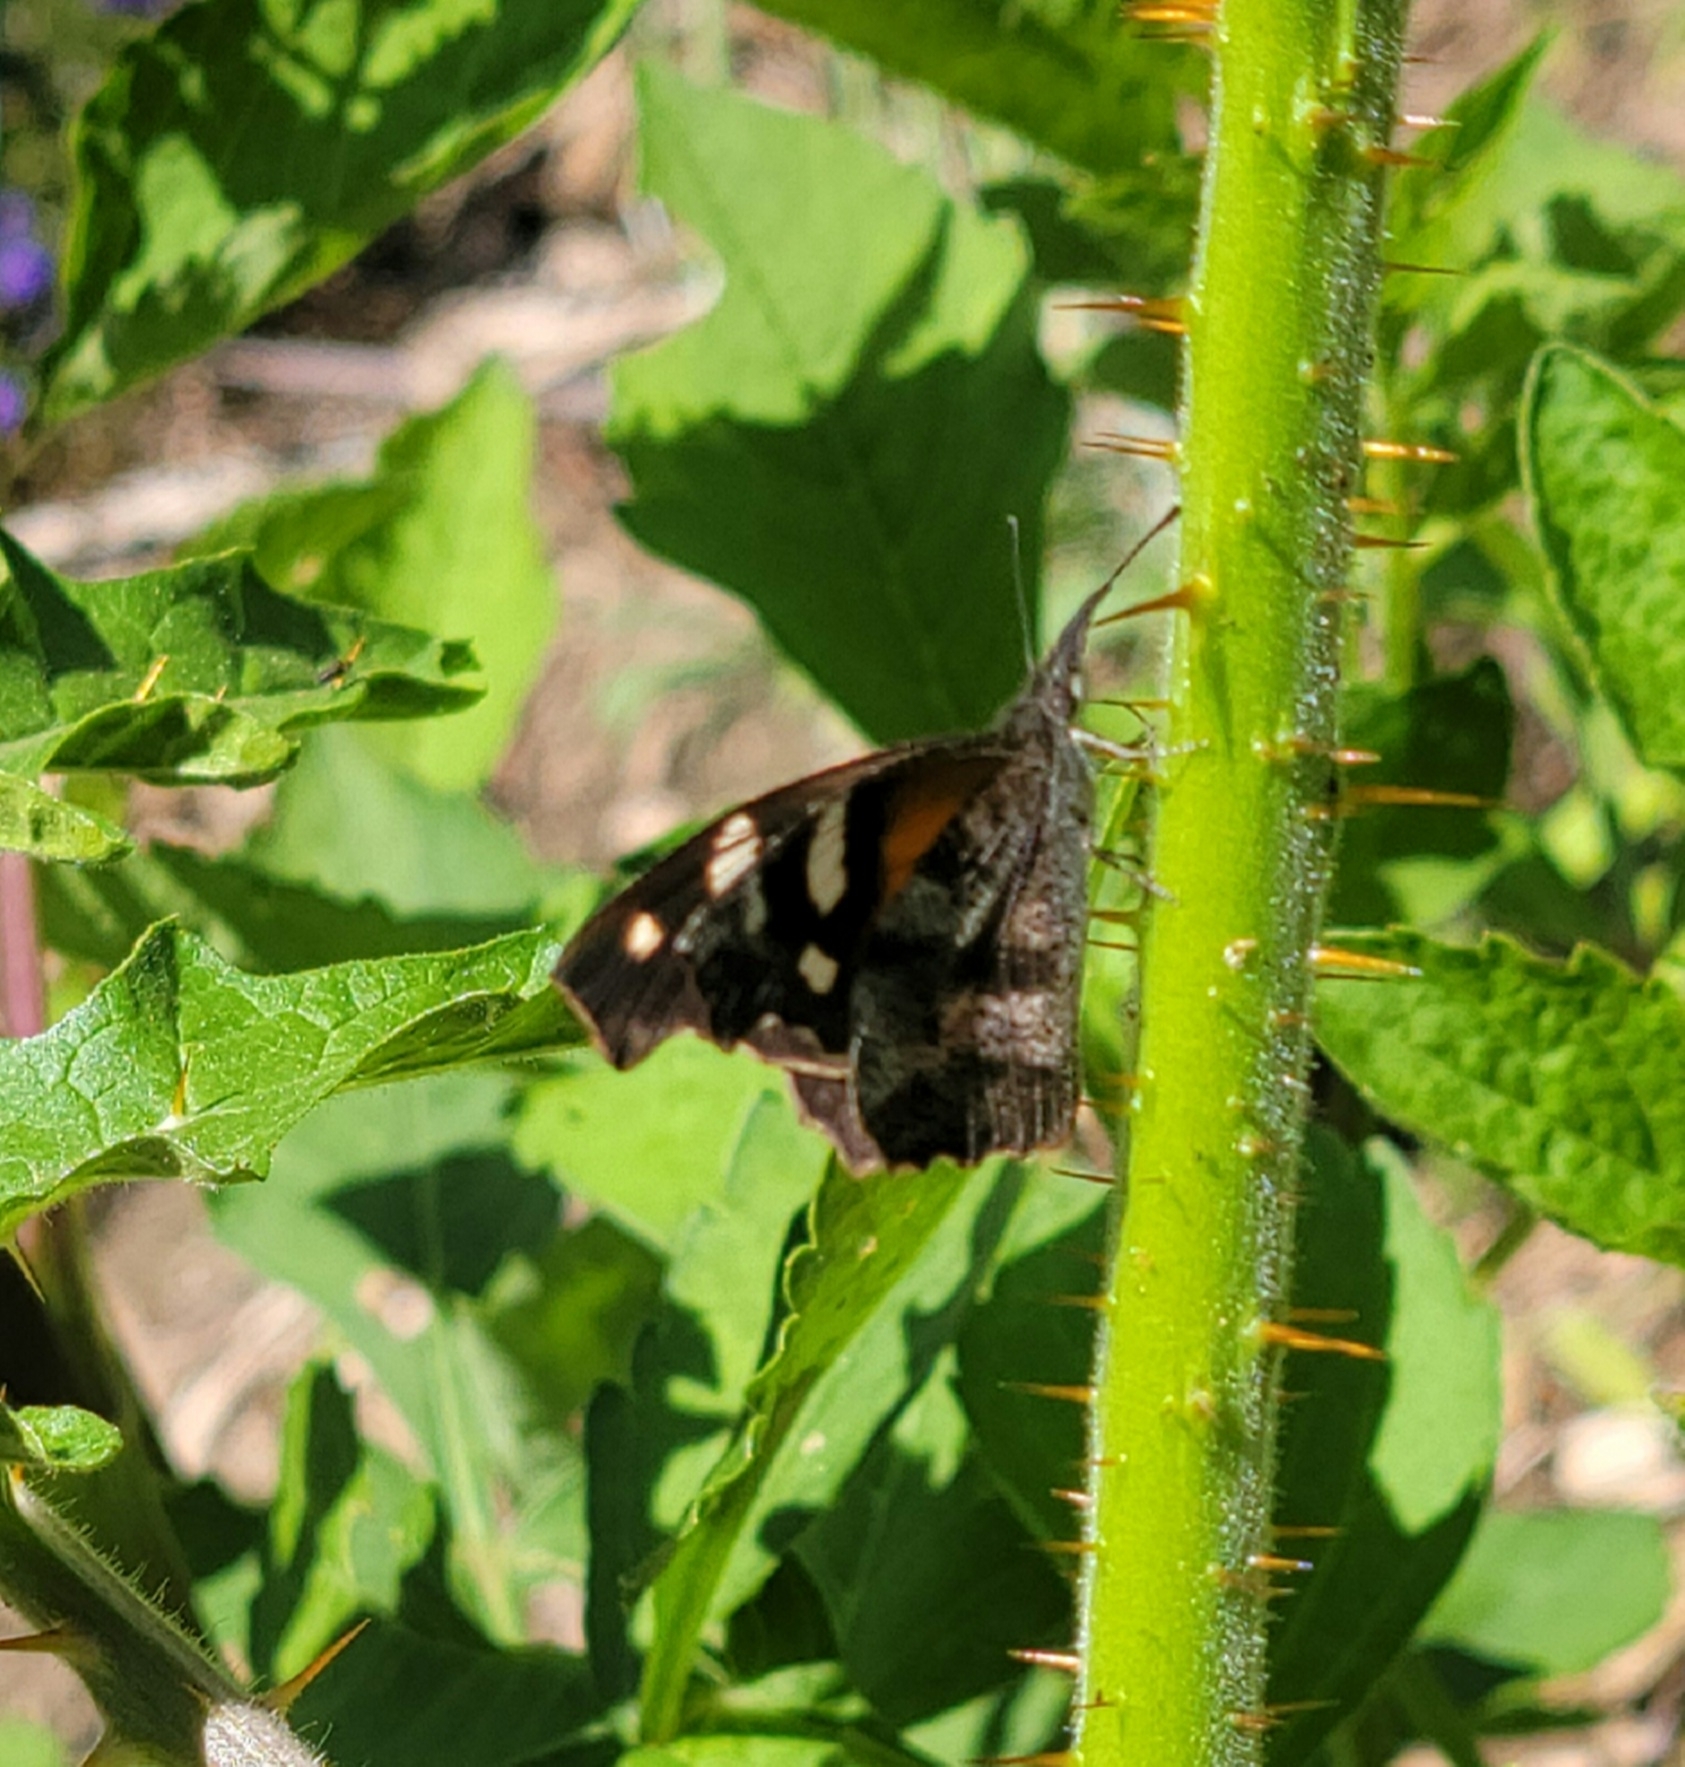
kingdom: Animalia
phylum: Arthropoda
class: Insecta
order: Lepidoptera
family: Nymphalidae
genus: Libytheana
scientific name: Libytheana carinenta
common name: American snout
